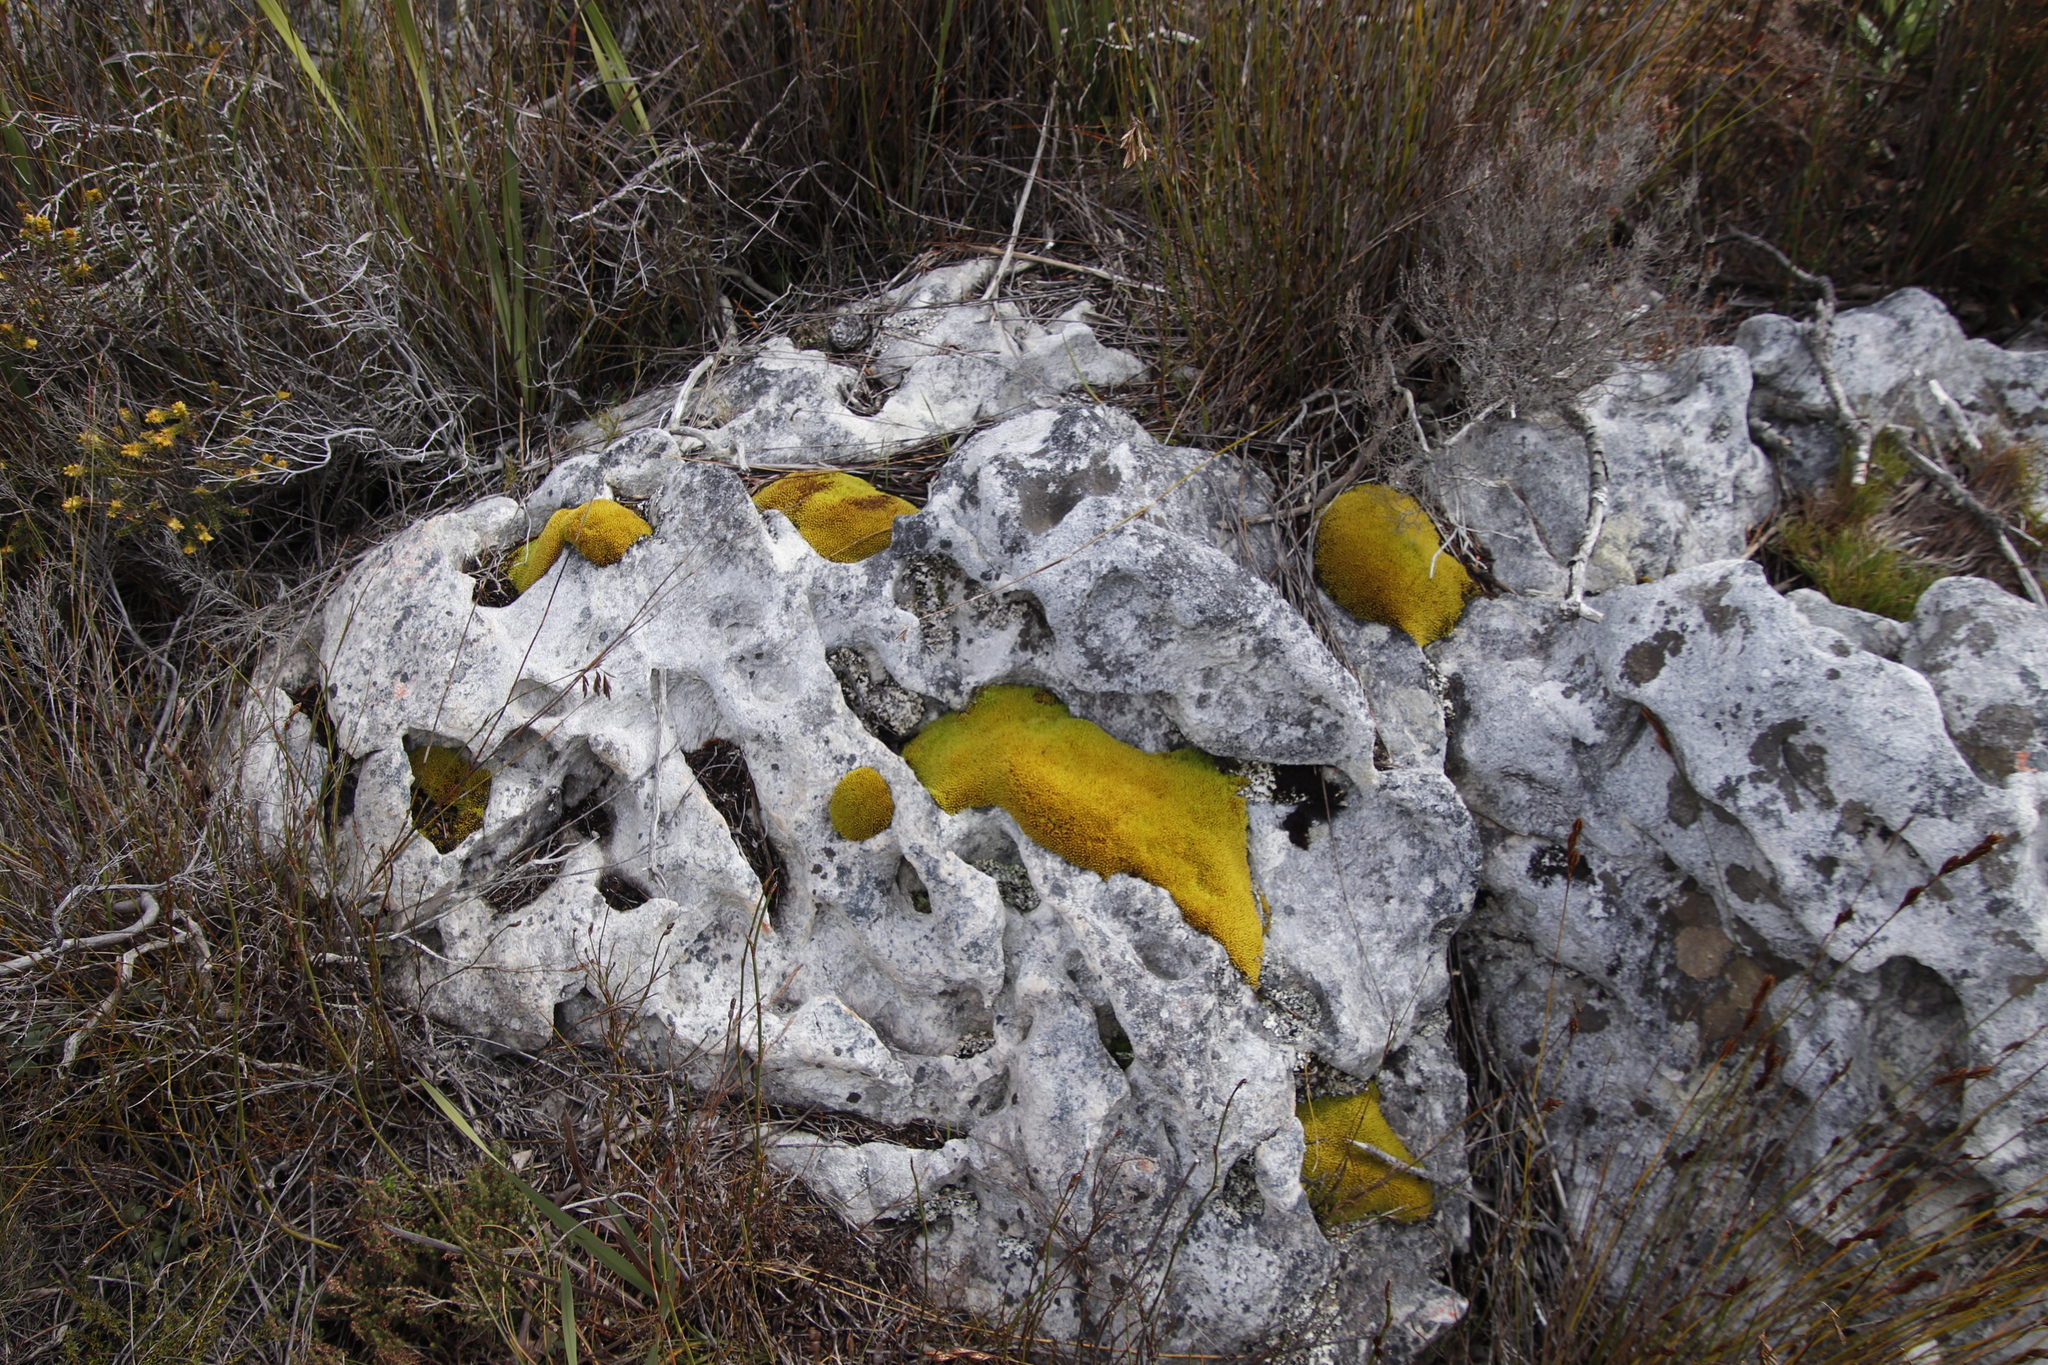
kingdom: Plantae
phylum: Bryophyta
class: Bryopsida
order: Dicranales
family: Hypodontiaceae
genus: Hypodontium
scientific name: Hypodontium pomiforme
